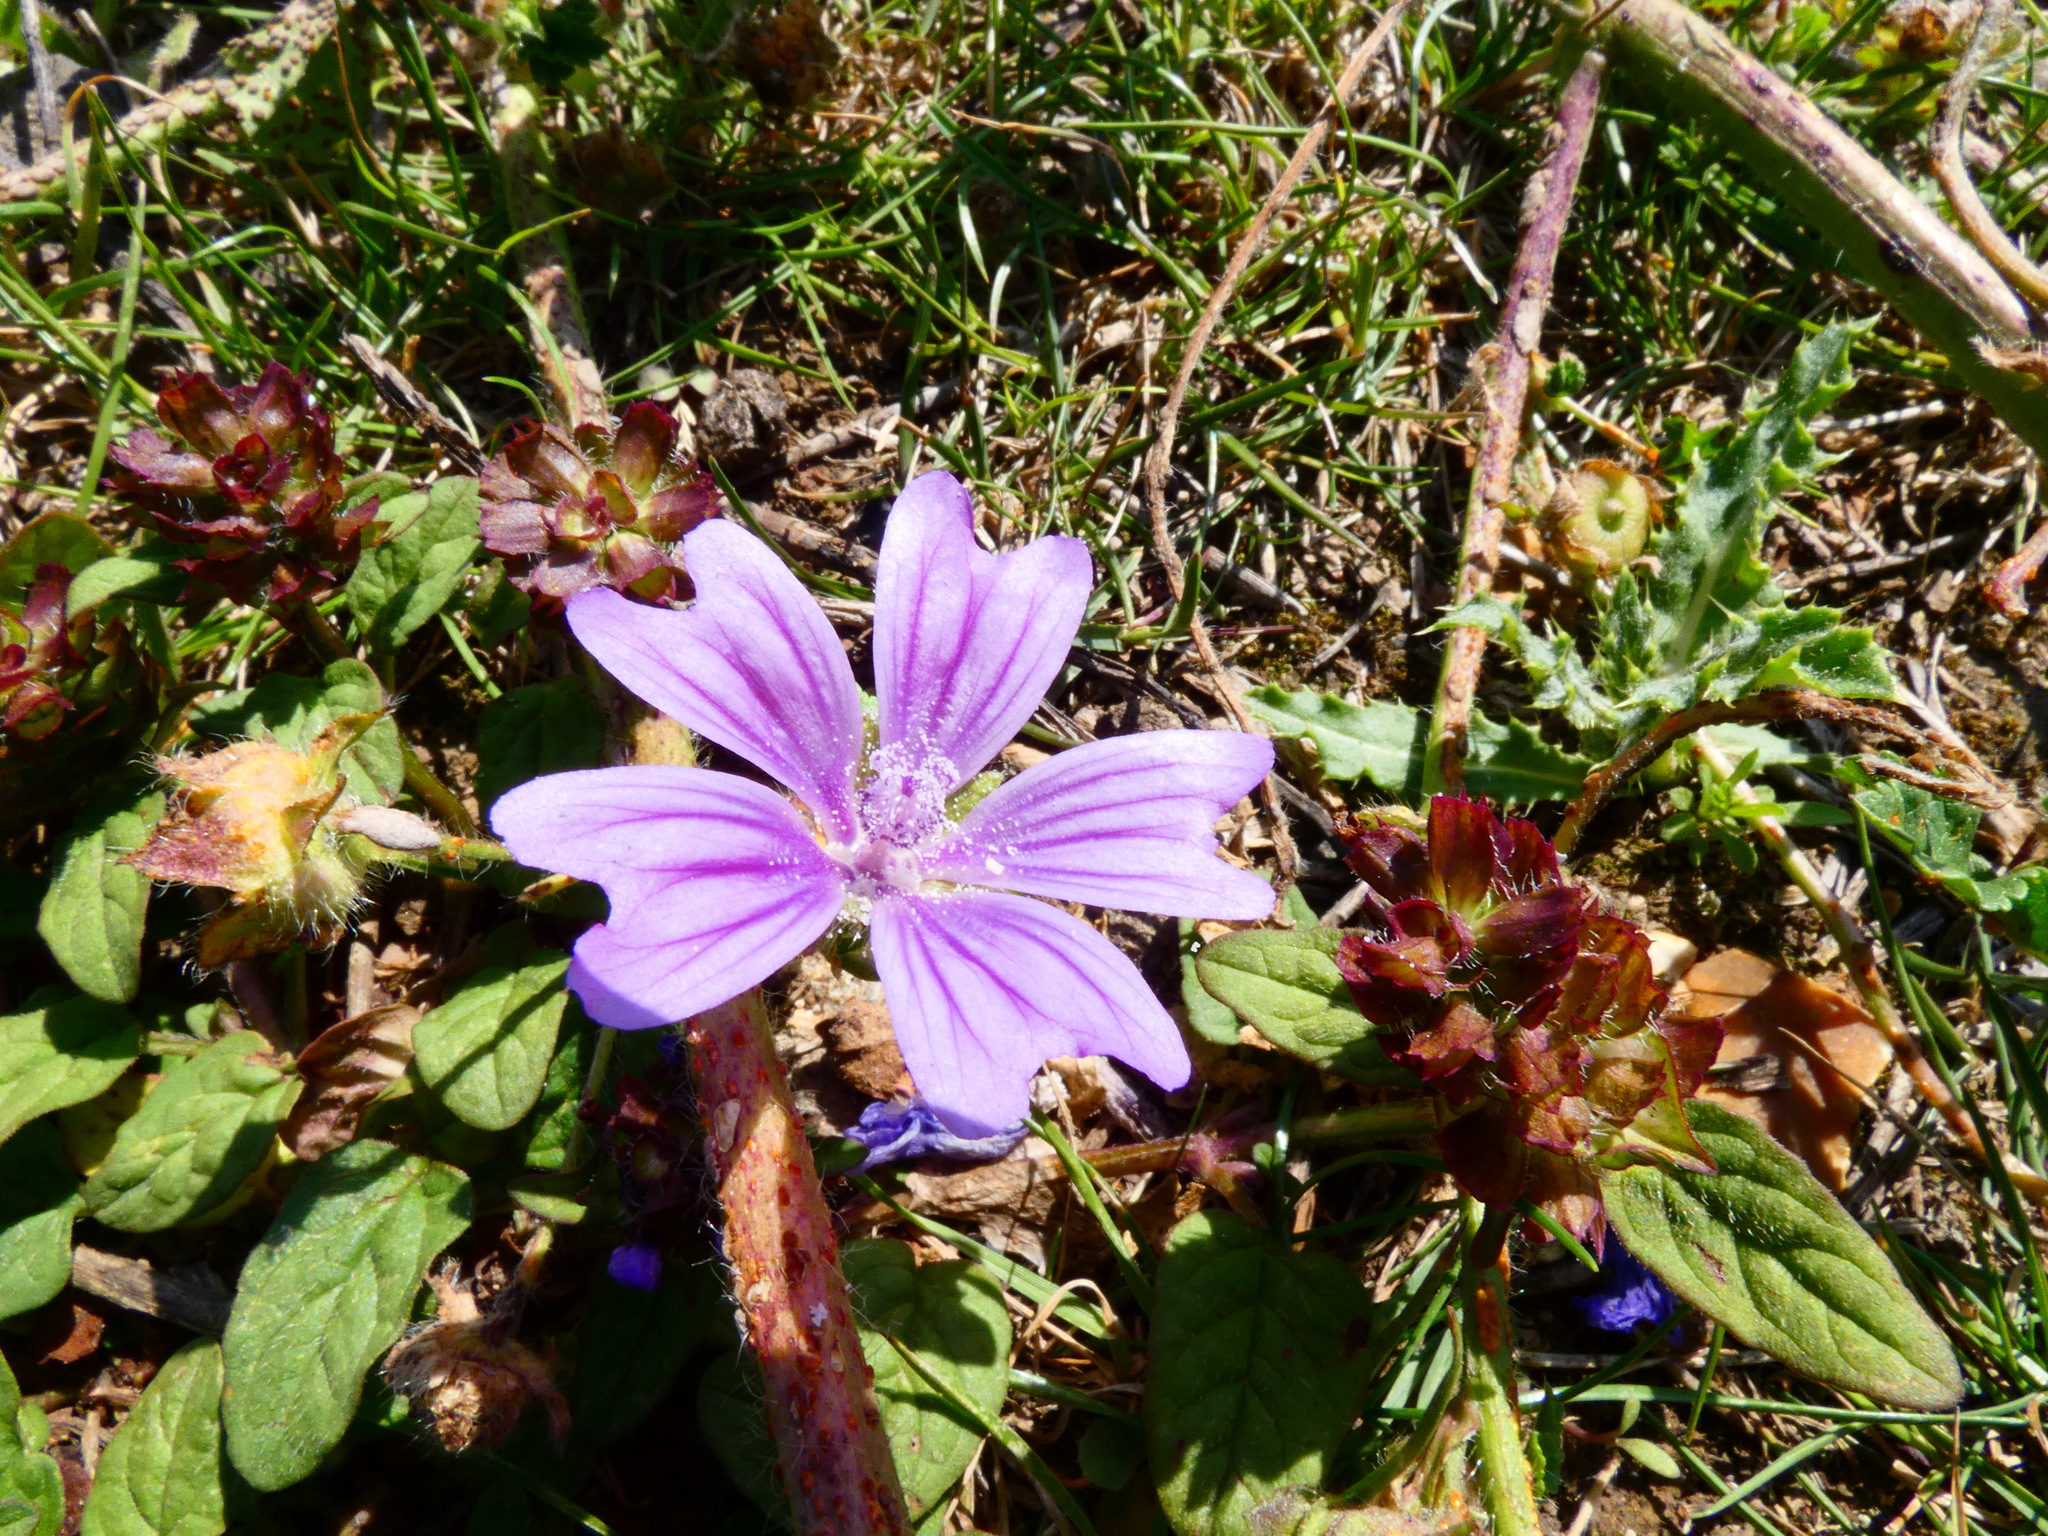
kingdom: Plantae
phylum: Tracheophyta
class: Magnoliopsida
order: Malvales
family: Malvaceae
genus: Malva
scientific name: Malva sylvestris
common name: Common mallow
